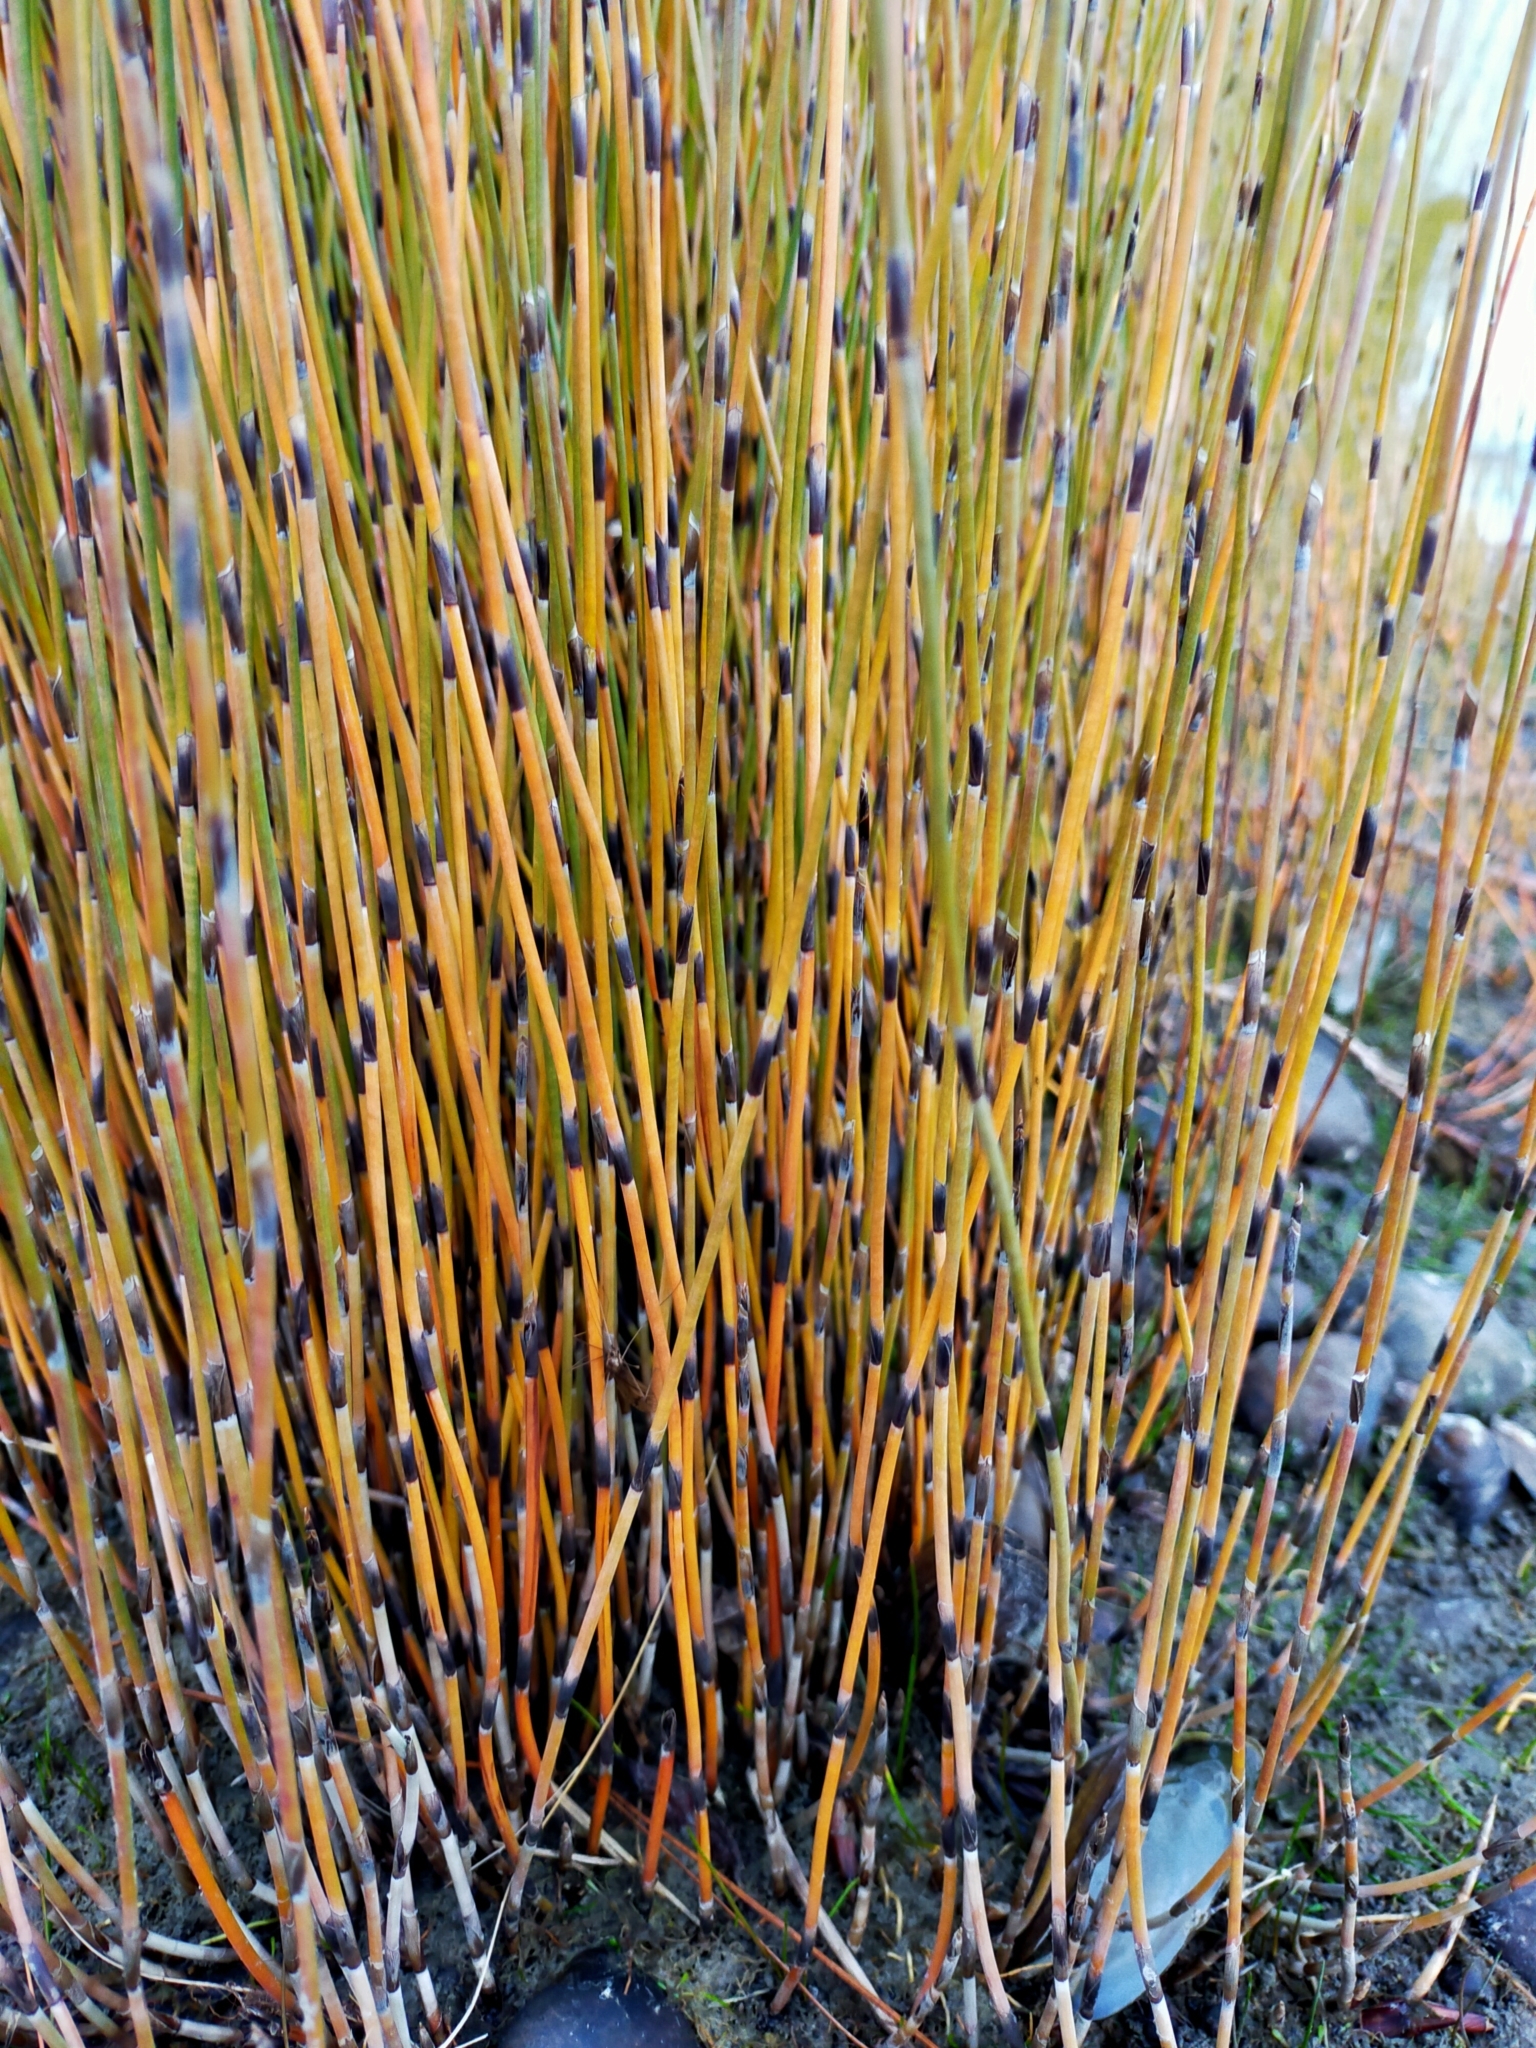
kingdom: Plantae
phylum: Tracheophyta
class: Liliopsida
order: Poales
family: Restionaceae
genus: Apodasmia
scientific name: Apodasmia similis
